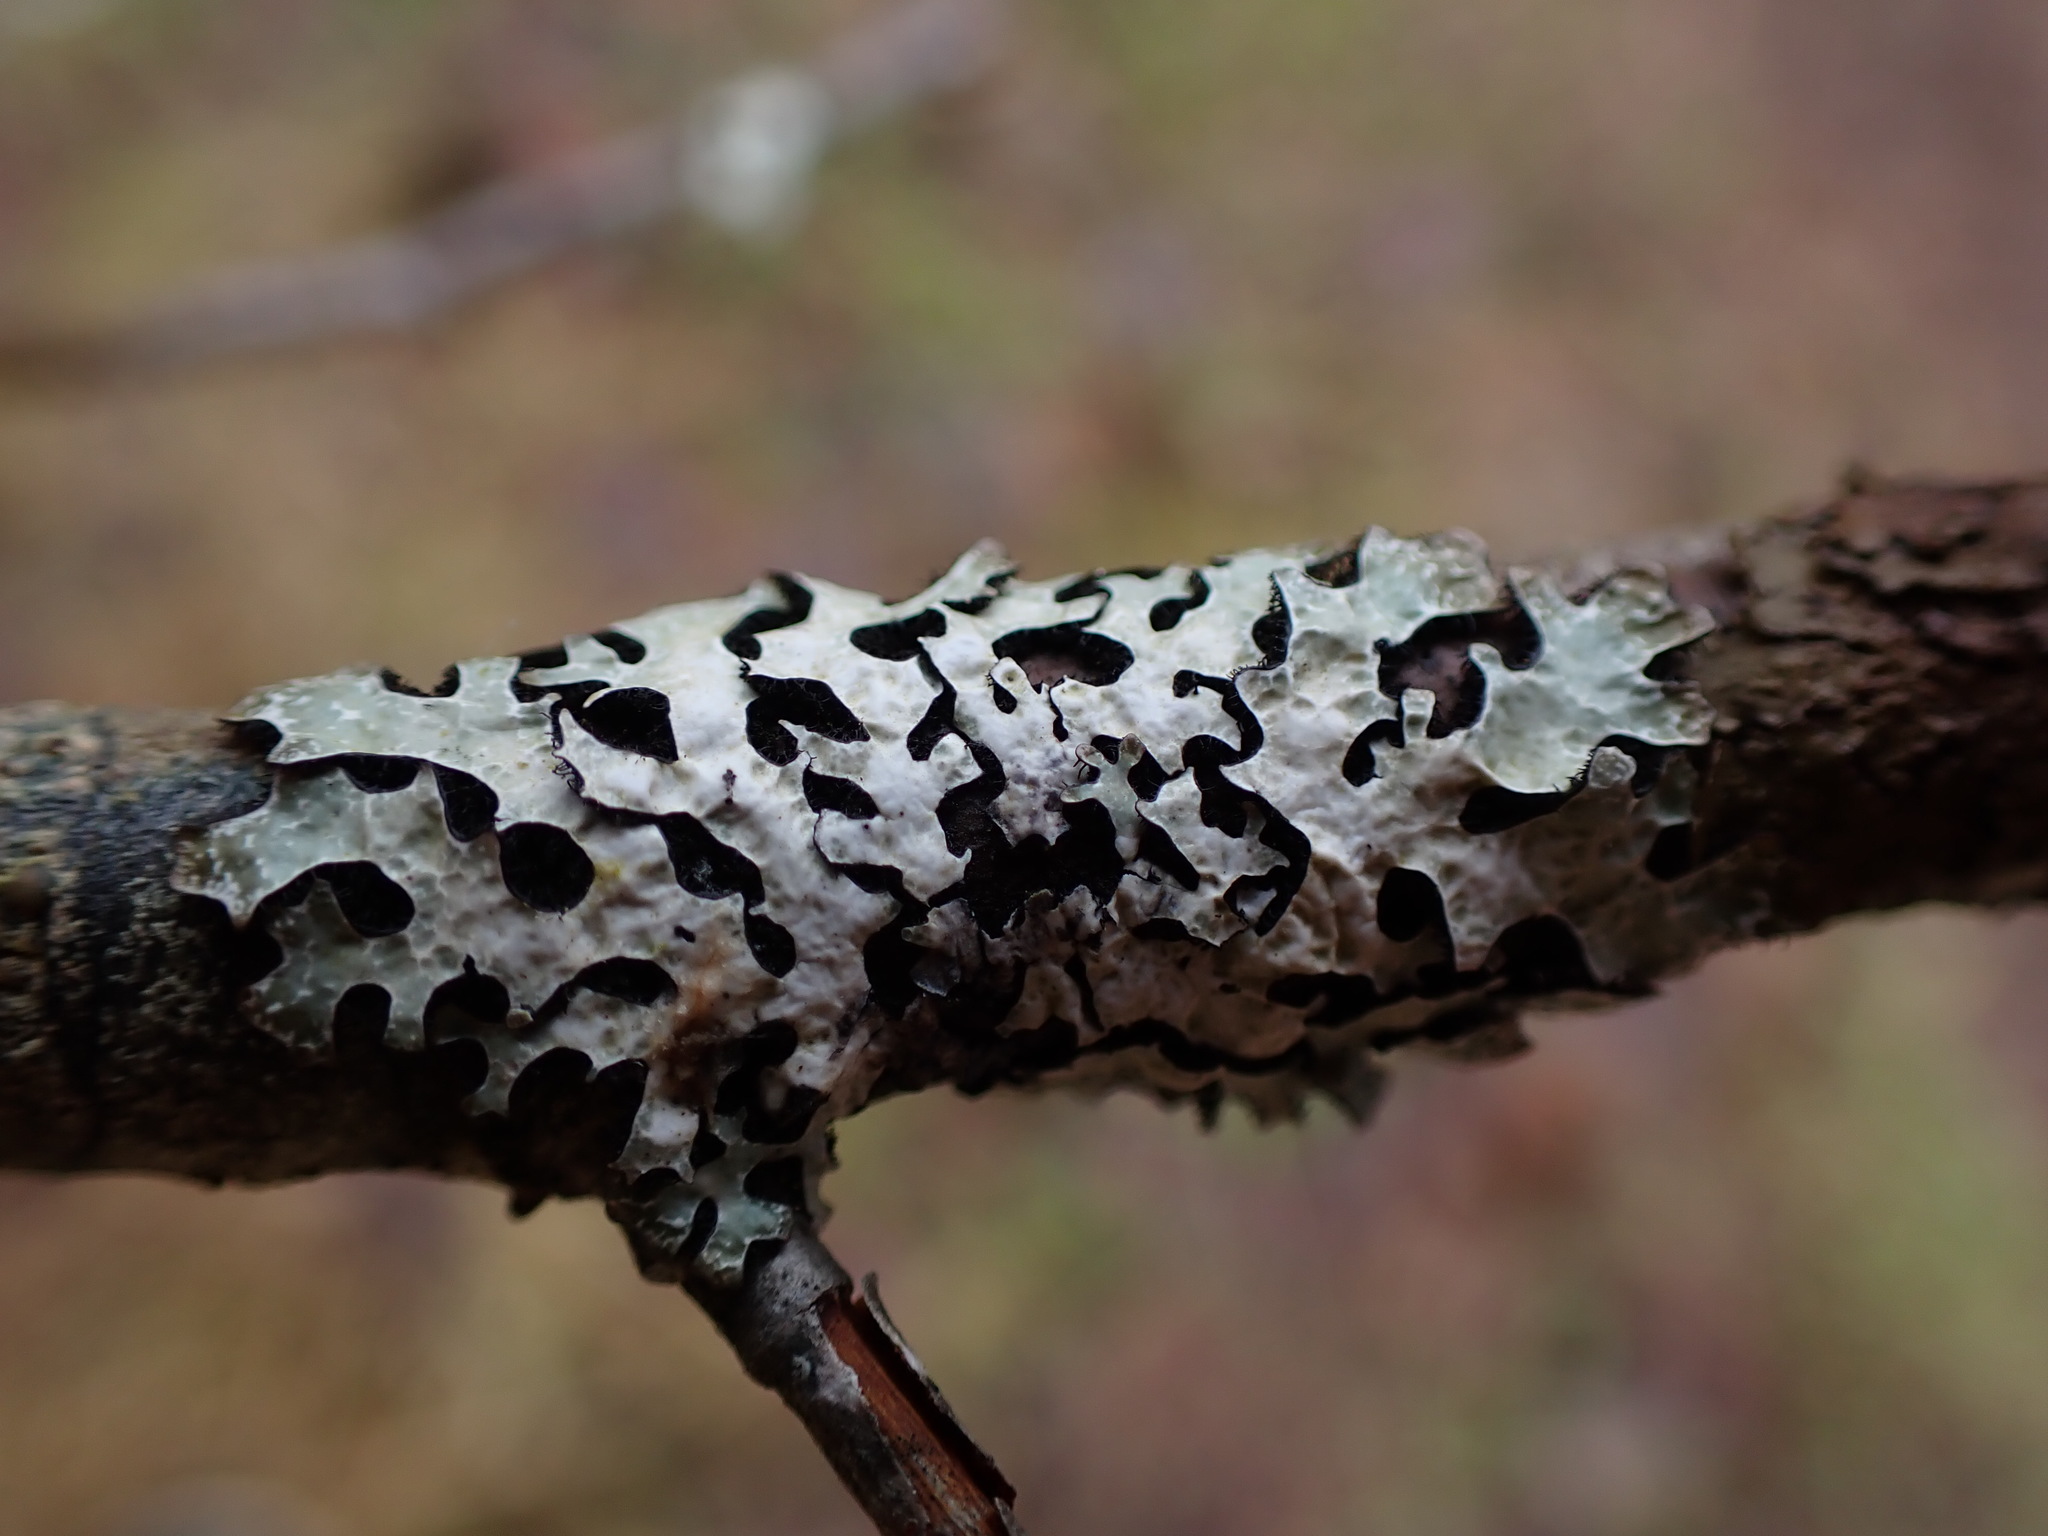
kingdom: Fungi
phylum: Ascomycota
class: Lecanoromycetes
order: Lecanorales
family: Parmeliaceae
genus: Parmelia
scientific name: Parmelia sulcata
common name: Netted shield lichen
